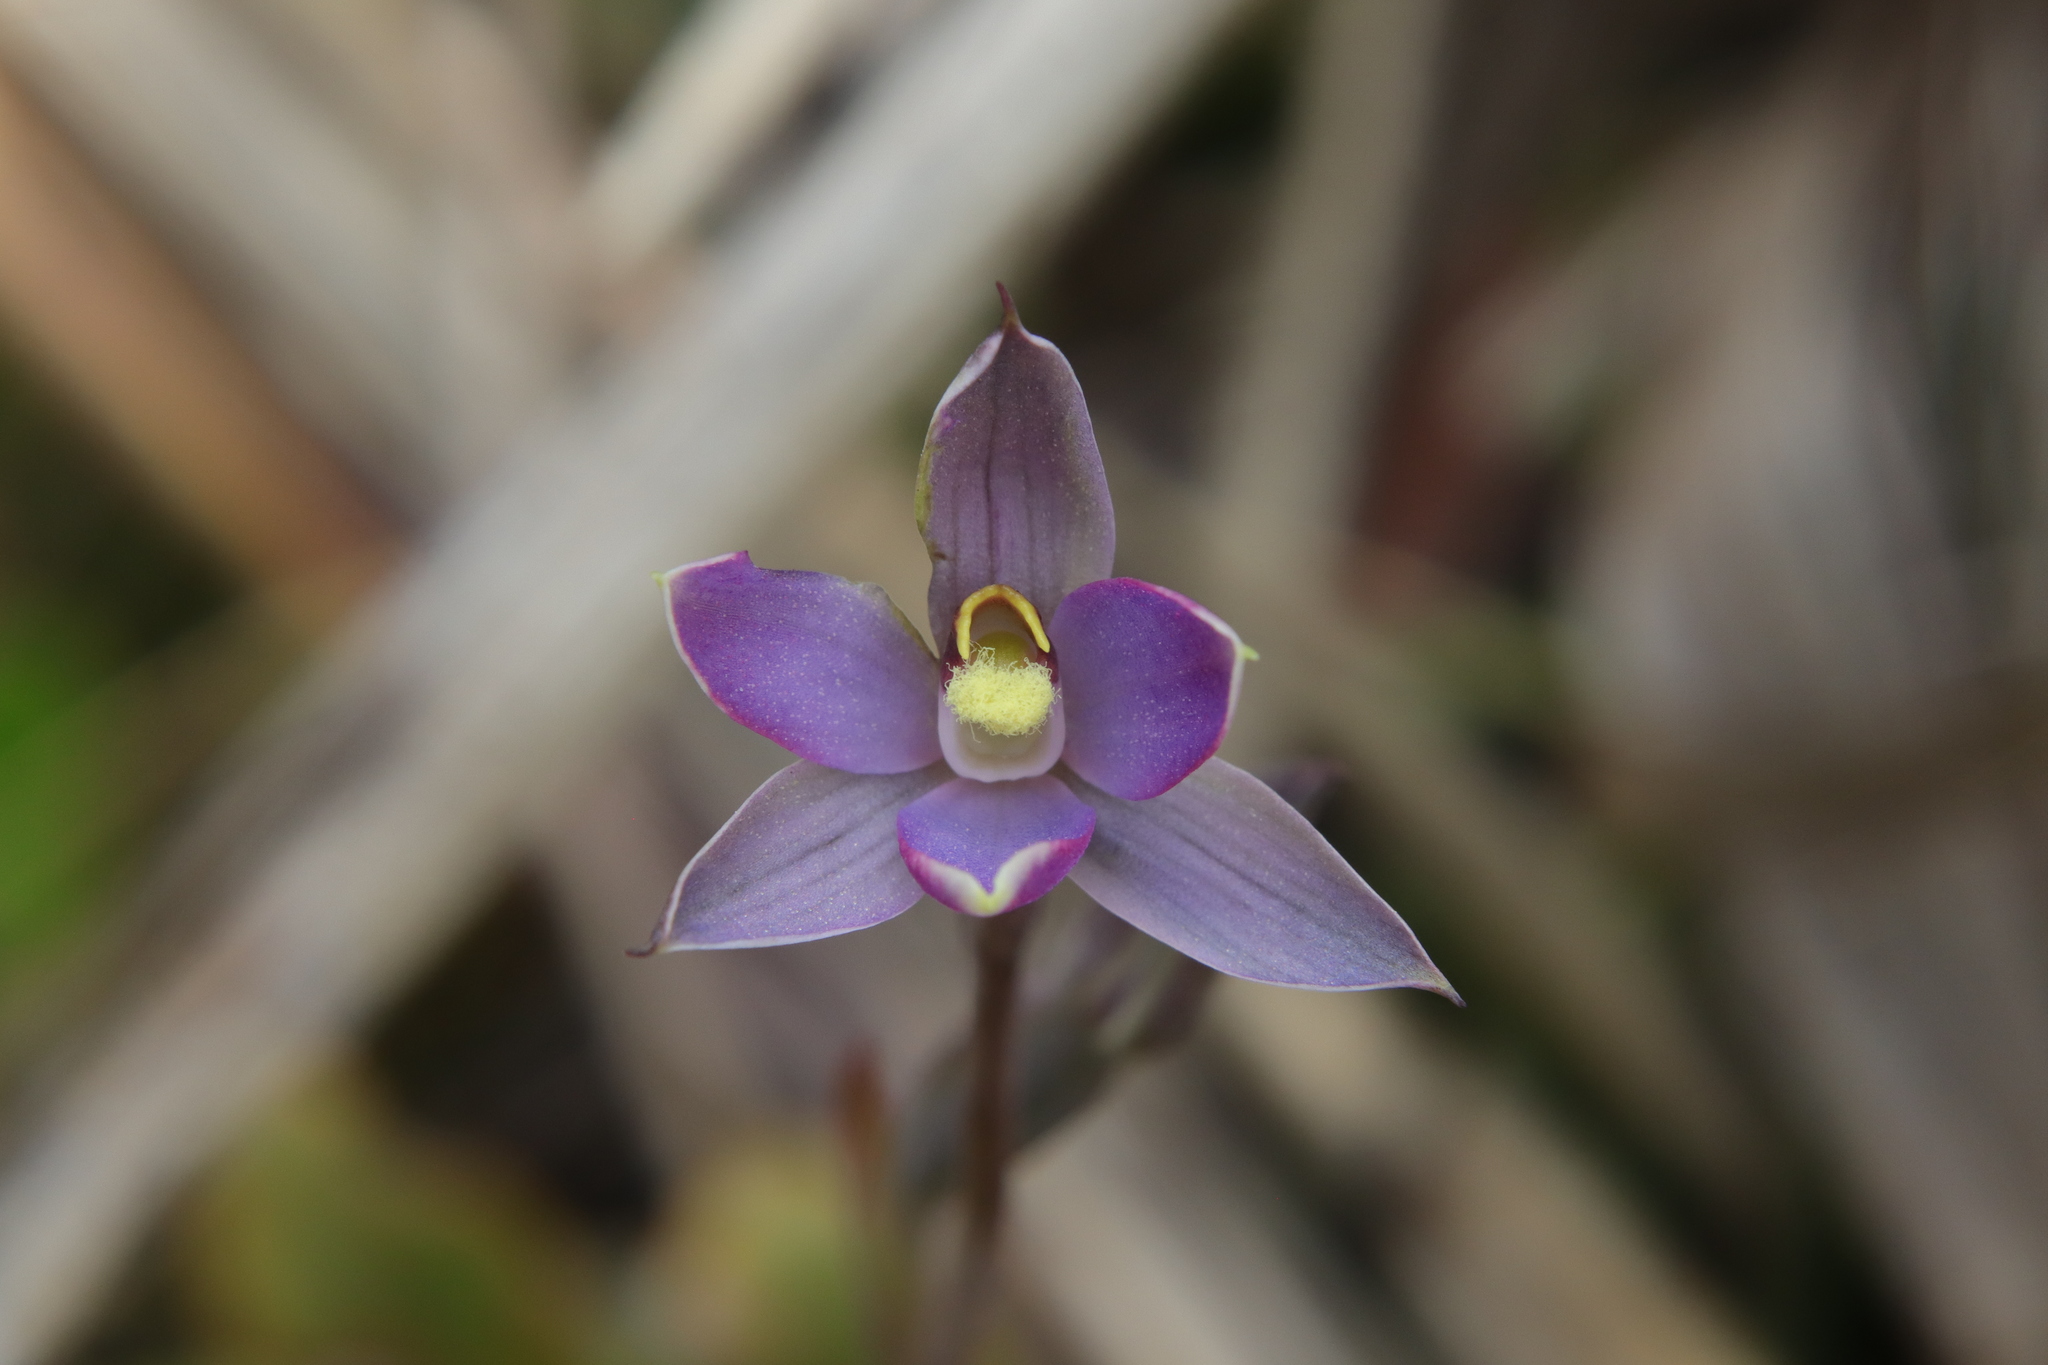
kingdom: Plantae
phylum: Tracheophyta
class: Liliopsida
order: Asparagales
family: Orchidaceae
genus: Thelymitra
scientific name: Thelymitra hatchii
